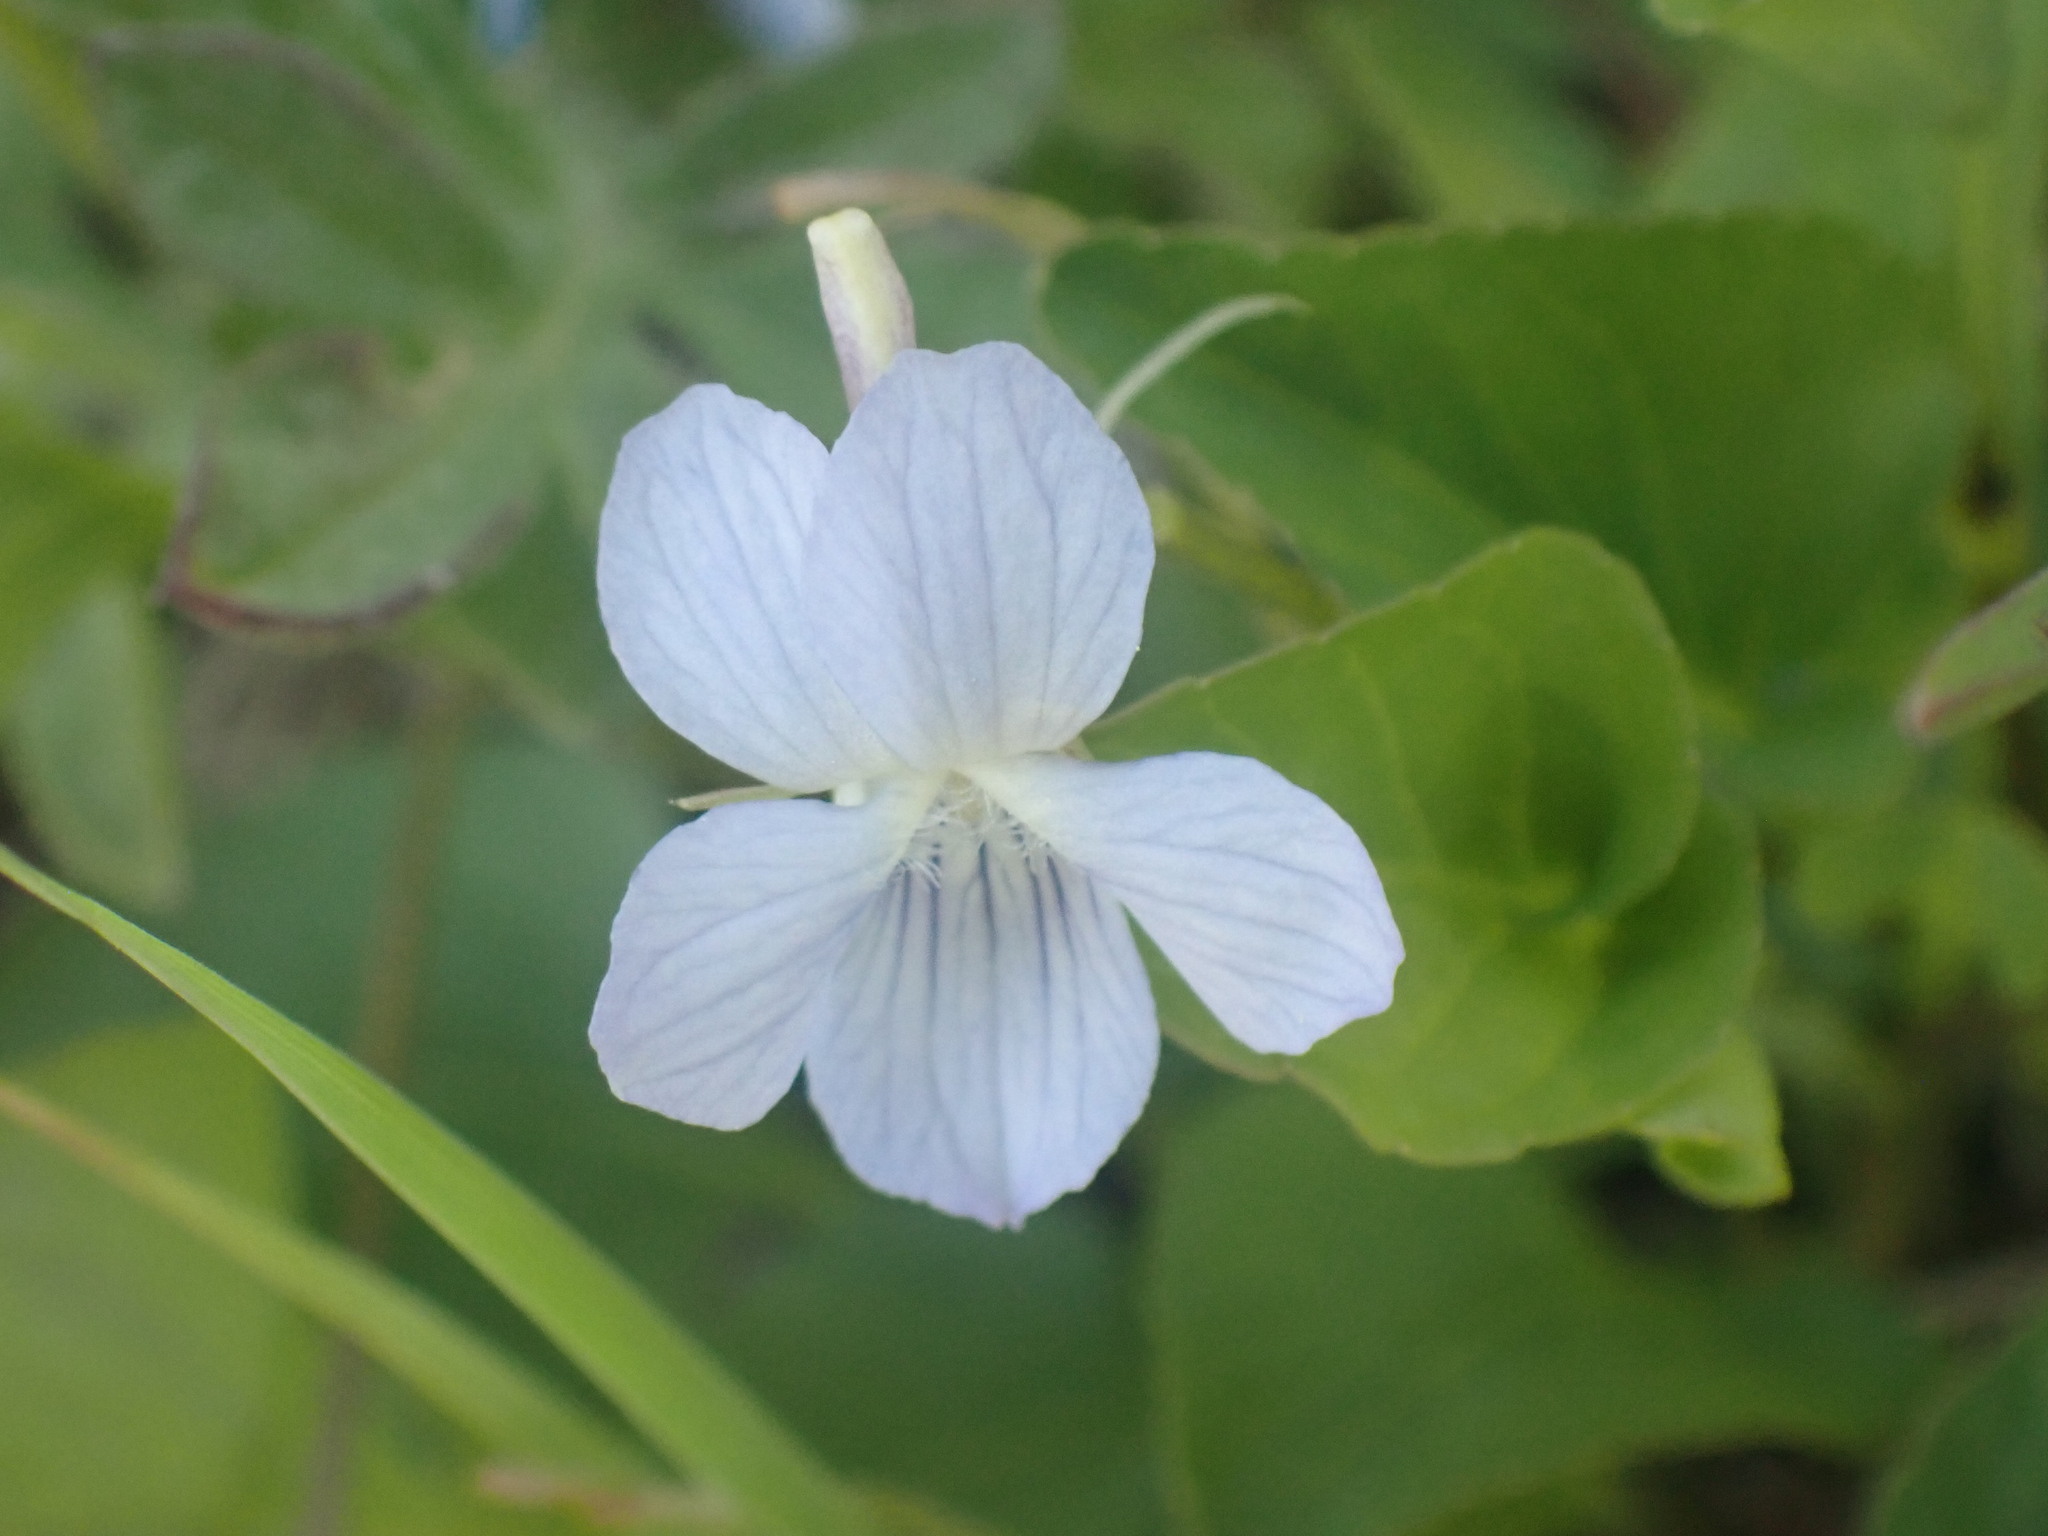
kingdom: Plantae
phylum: Tracheophyta
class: Magnoliopsida
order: Malpighiales
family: Violaceae
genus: Viola
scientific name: Viola adunca
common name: Sand violet
